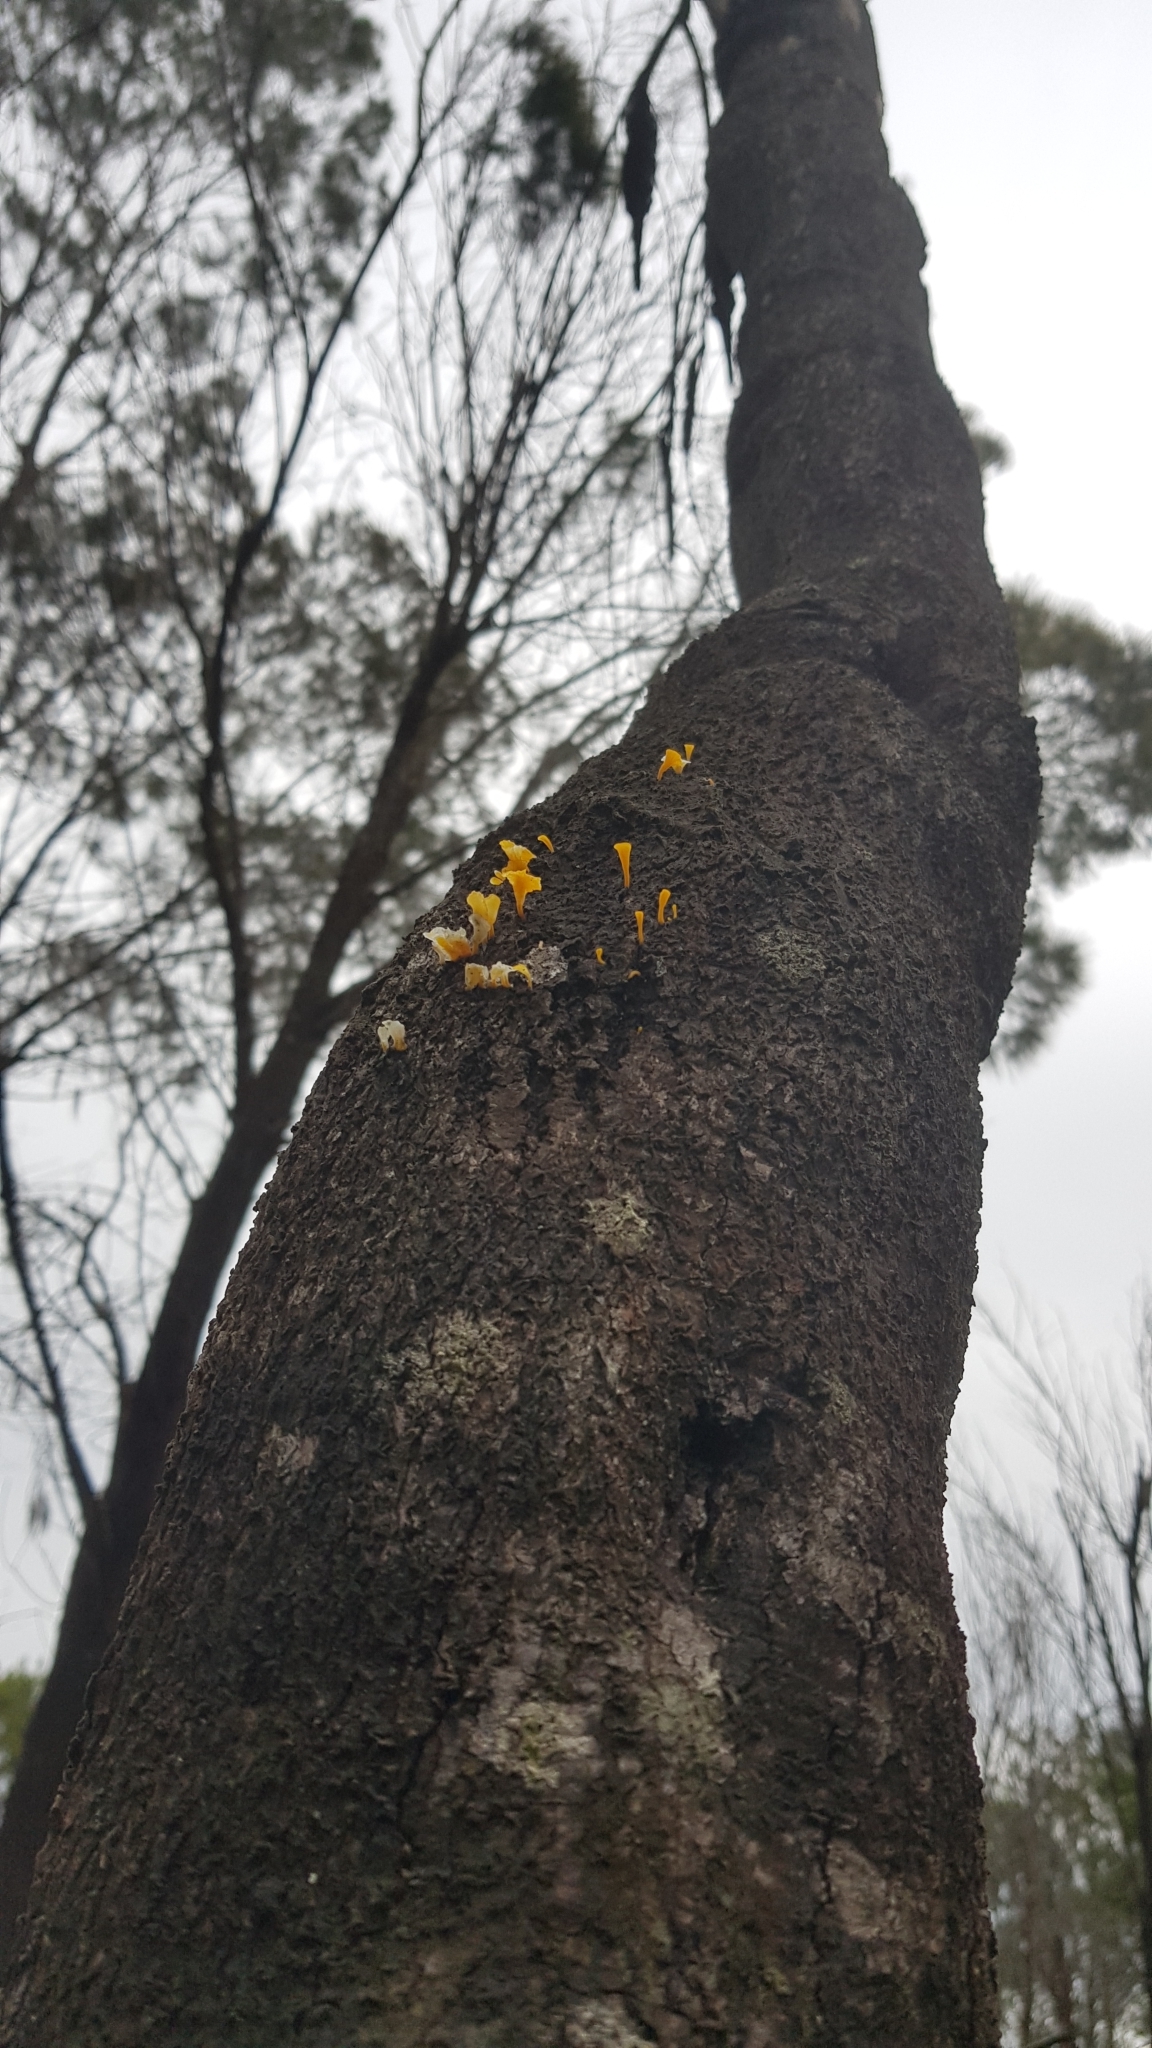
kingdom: Fungi
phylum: Basidiomycota
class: Dacrymycetes
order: Dacrymycetales
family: Dacrymycetaceae
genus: Dacrymyces
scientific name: Dacrymyces spathularius
